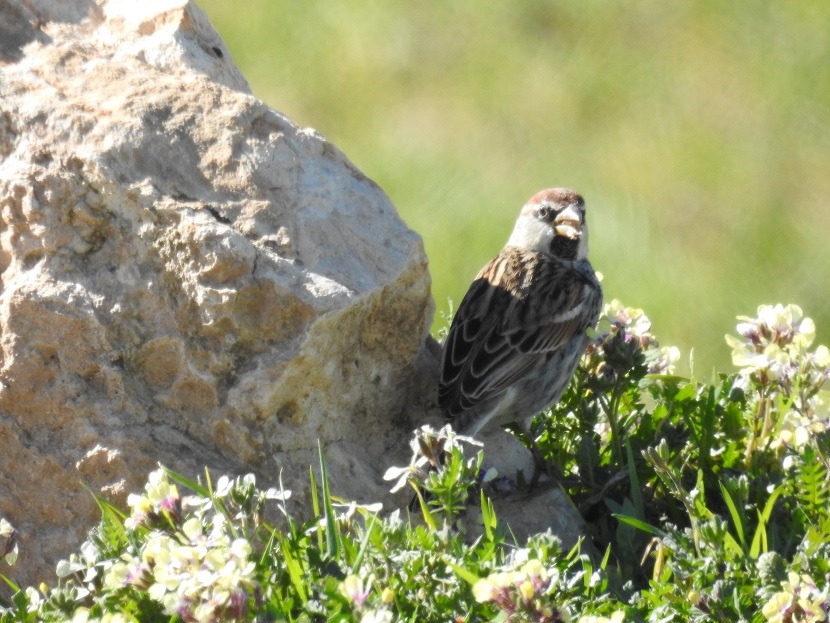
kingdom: Animalia
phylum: Chordata
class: Aves
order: Passeriformes
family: Passeridae
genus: Passer
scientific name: Passer hispaniolensis
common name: Spanish sparrow
